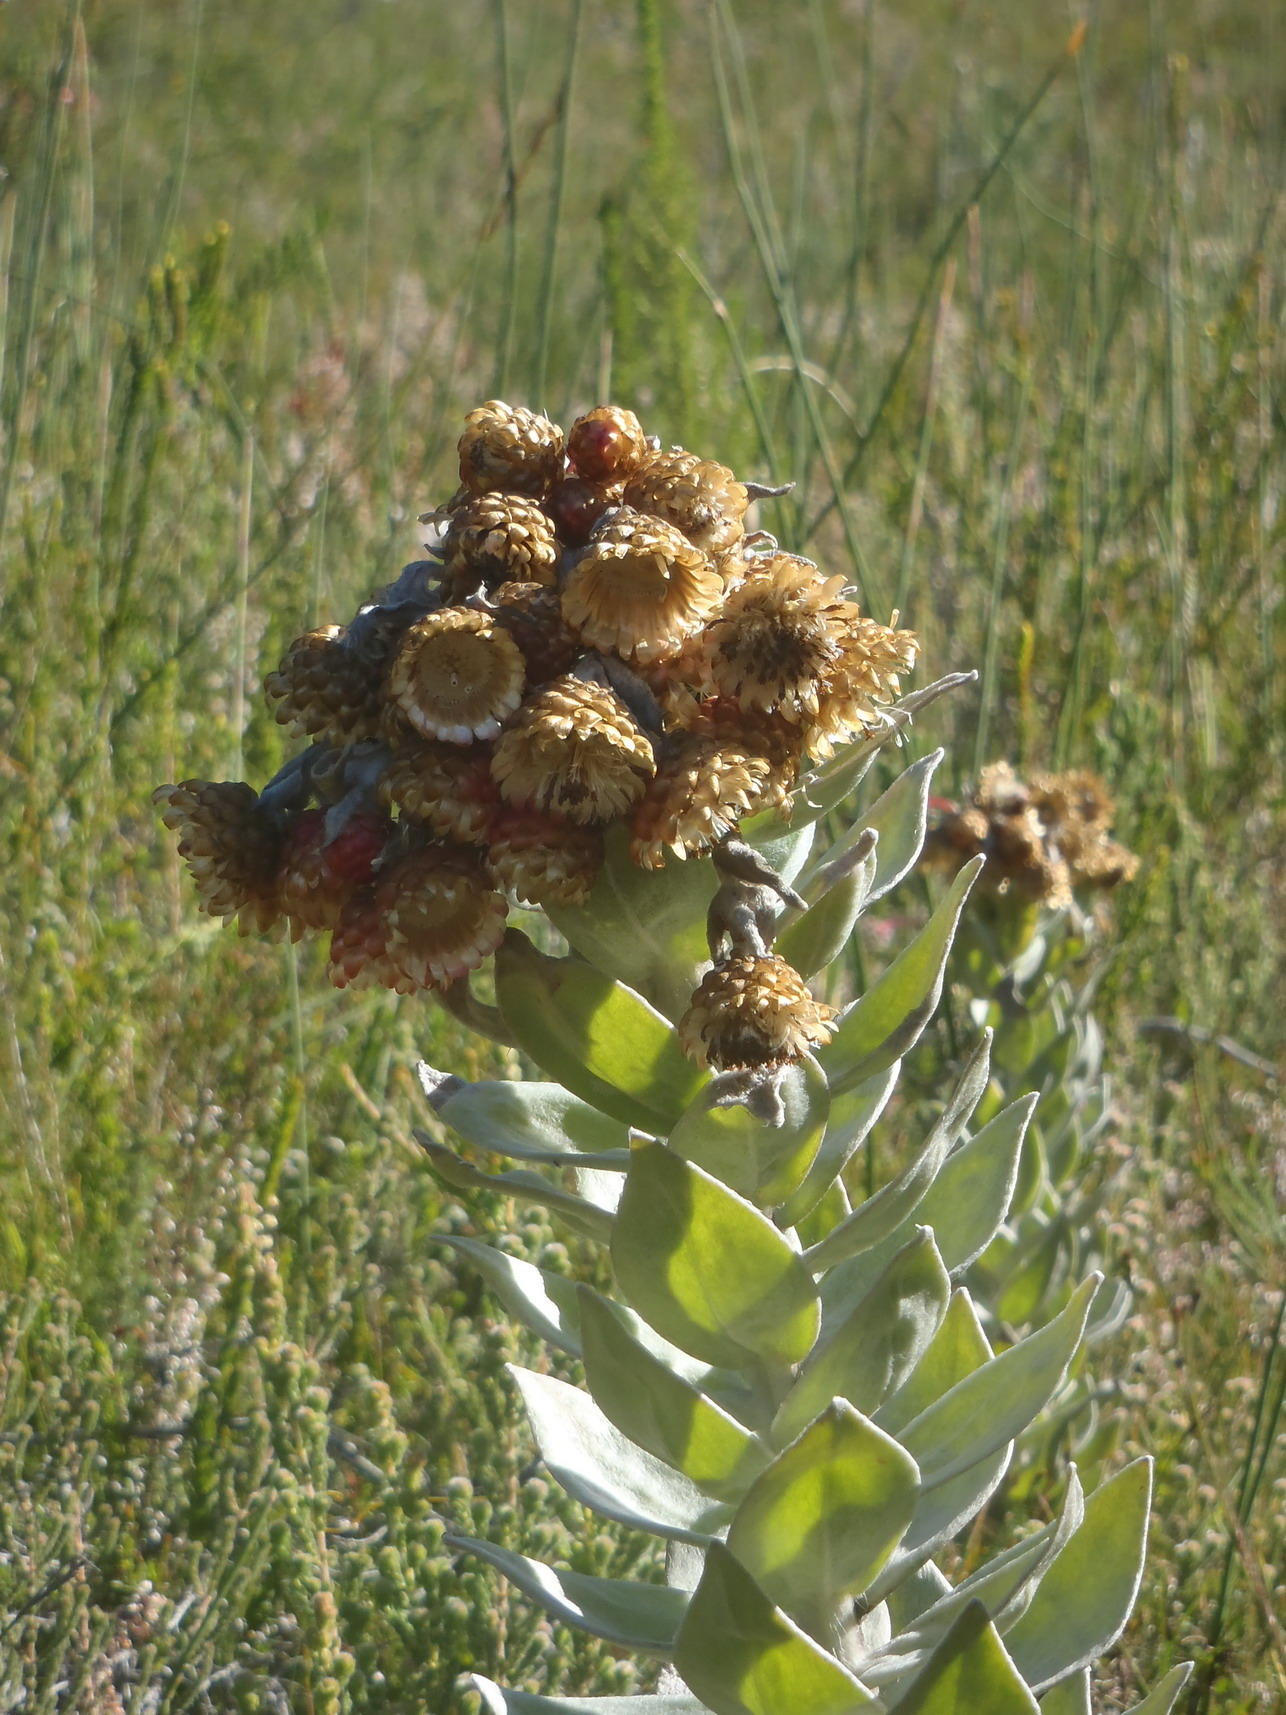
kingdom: Plantae
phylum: Tracheophyta
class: Magnoliopsida
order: Asterales
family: Asteraceae
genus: Syncarpha
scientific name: Syncarpha eximia
